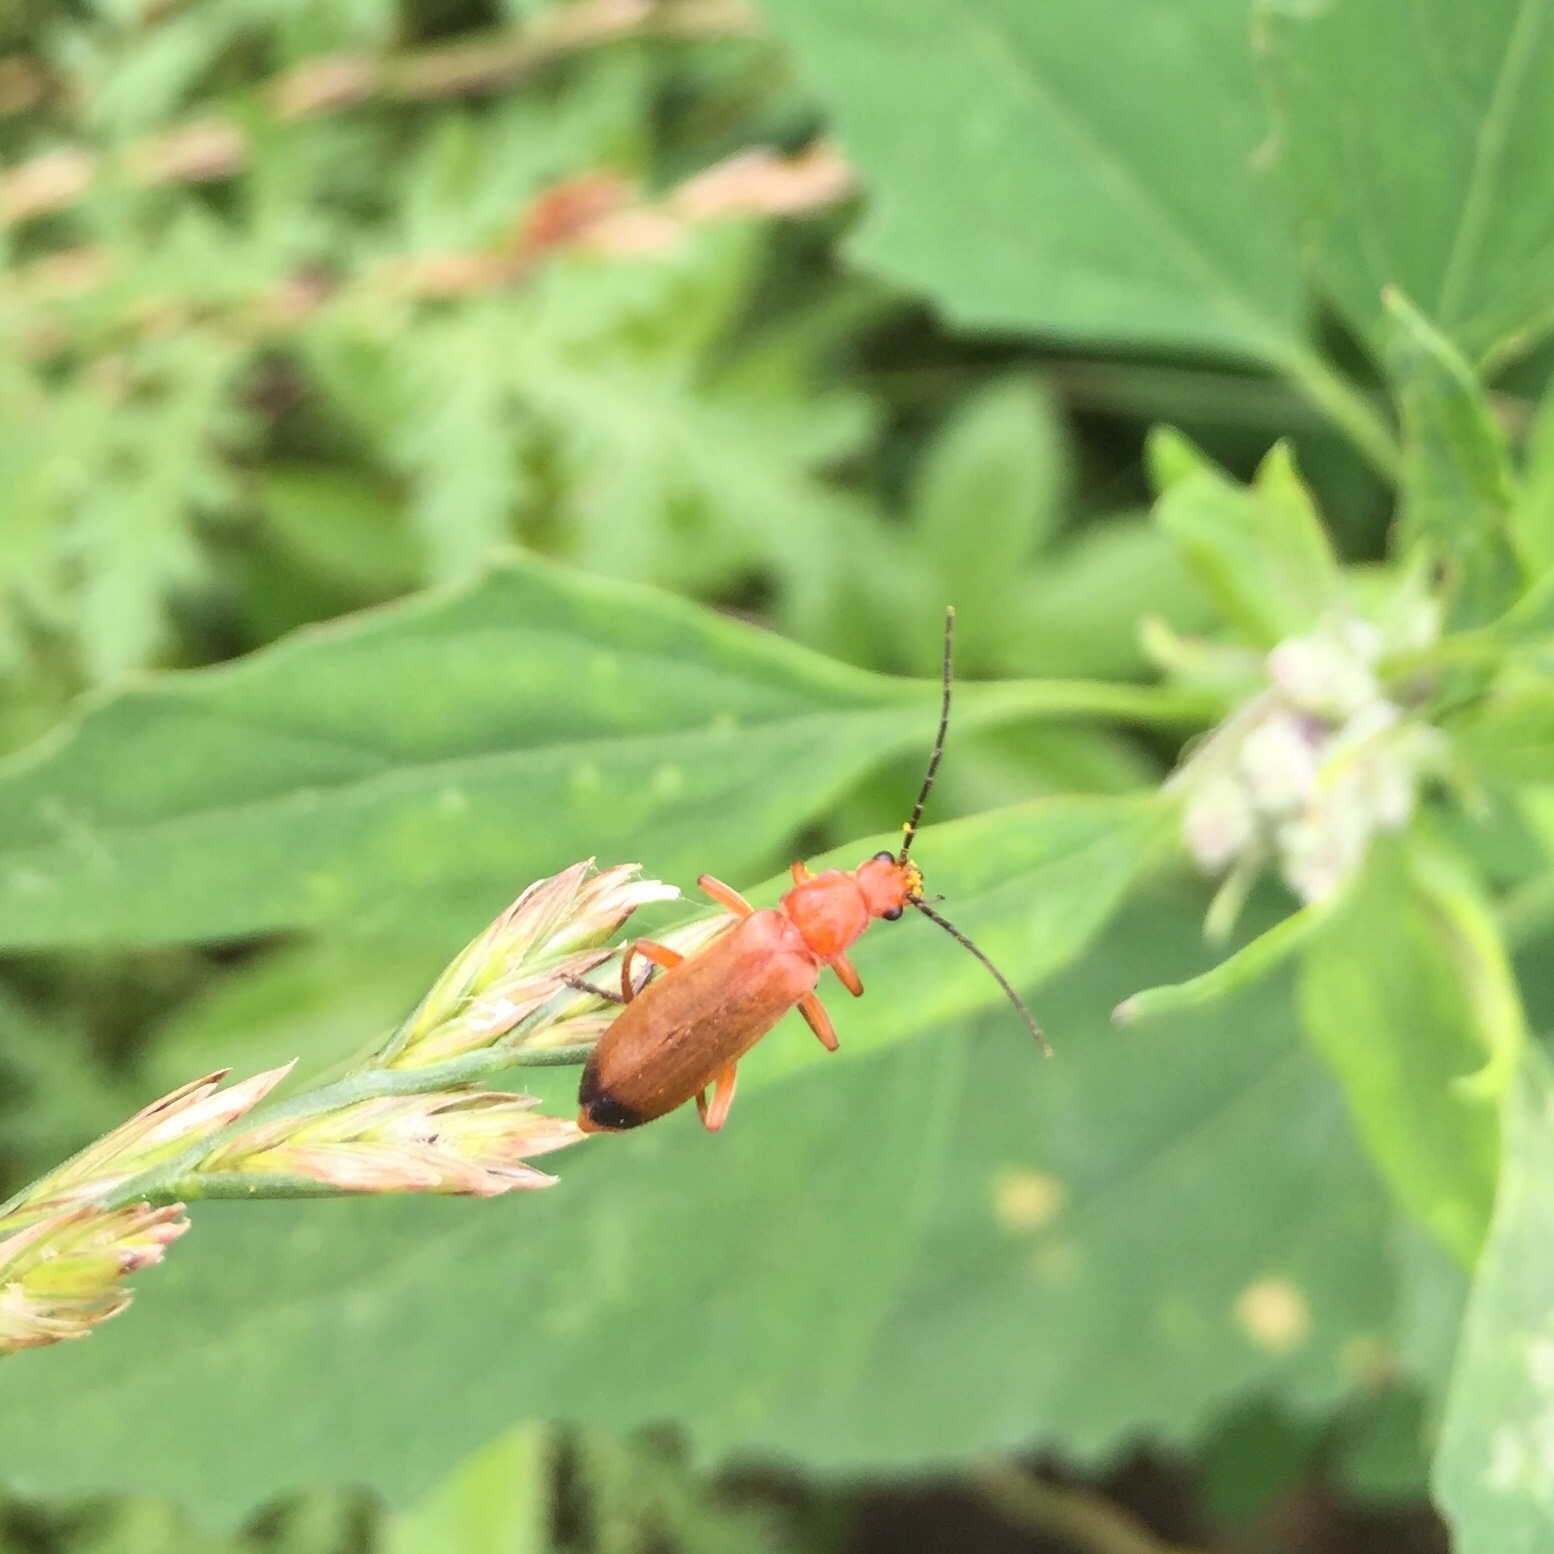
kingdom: Animalia
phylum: Arthropoda
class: Insecta
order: Coleoptera
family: Cantharidae
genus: Rhagonycha
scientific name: Rhagonycha fulva
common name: Common red soldier beetle
